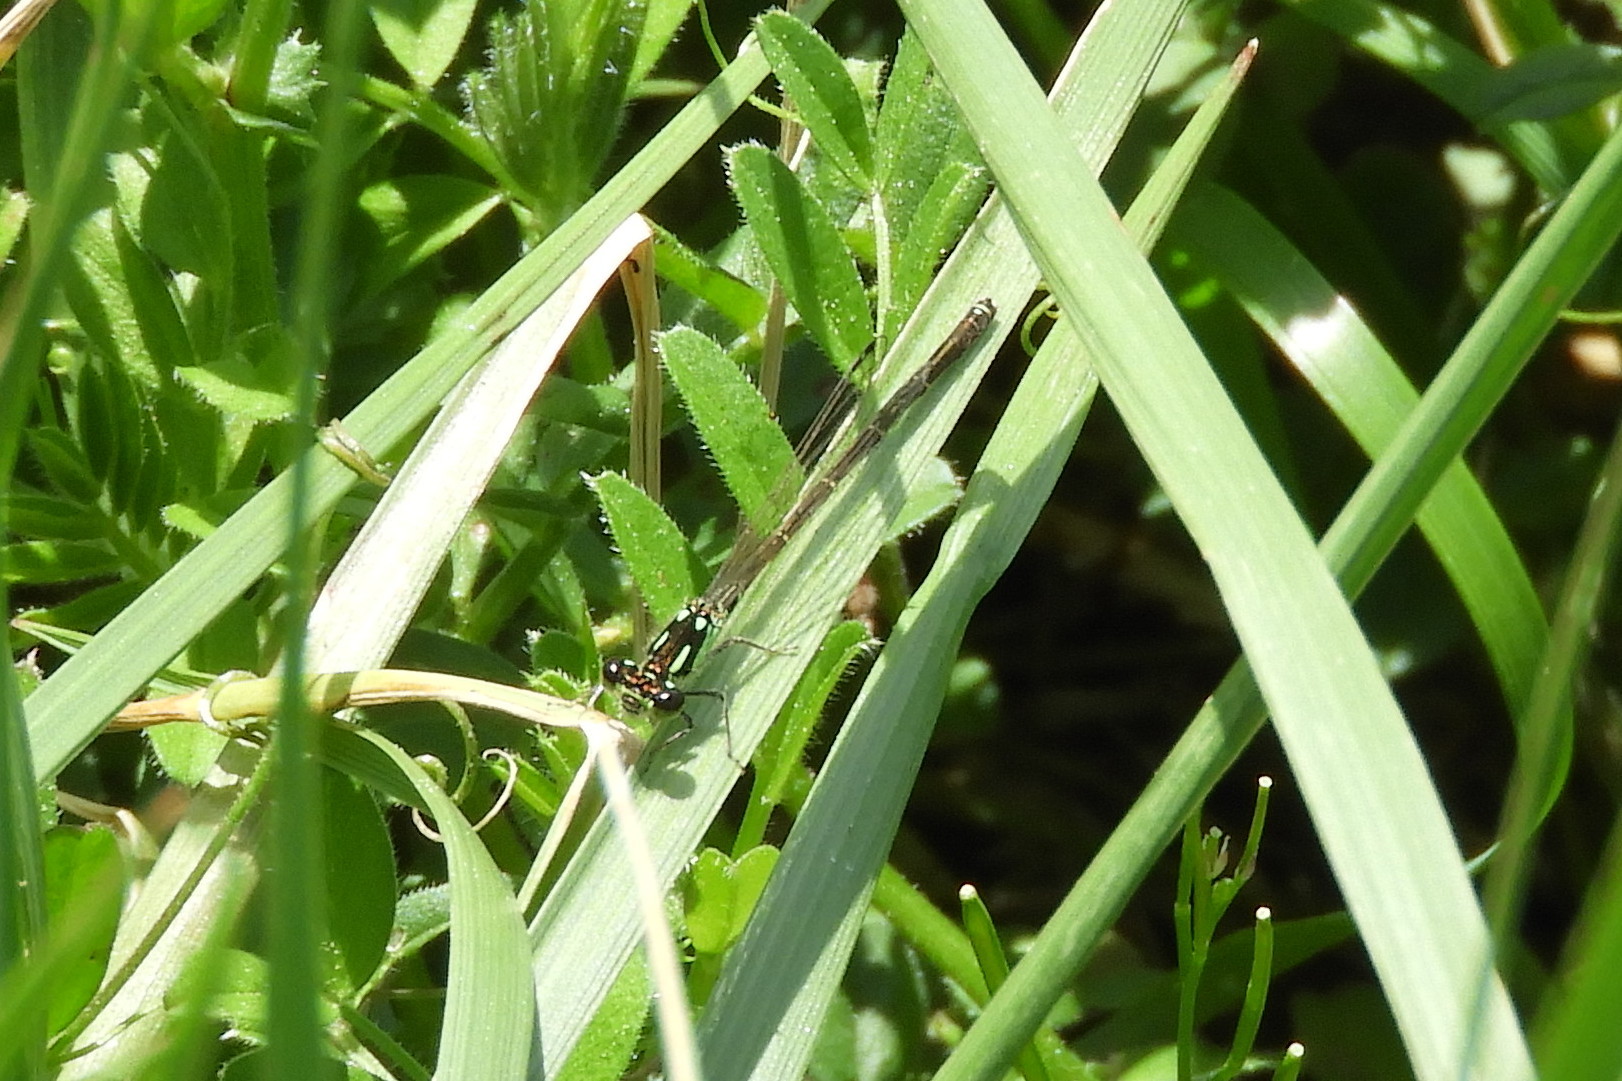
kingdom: Animalia
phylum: Arthropoda
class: Insecta
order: Odonata
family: Coenagrionidae
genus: Ischnura
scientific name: Ischnura posita
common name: Fragile forktail
